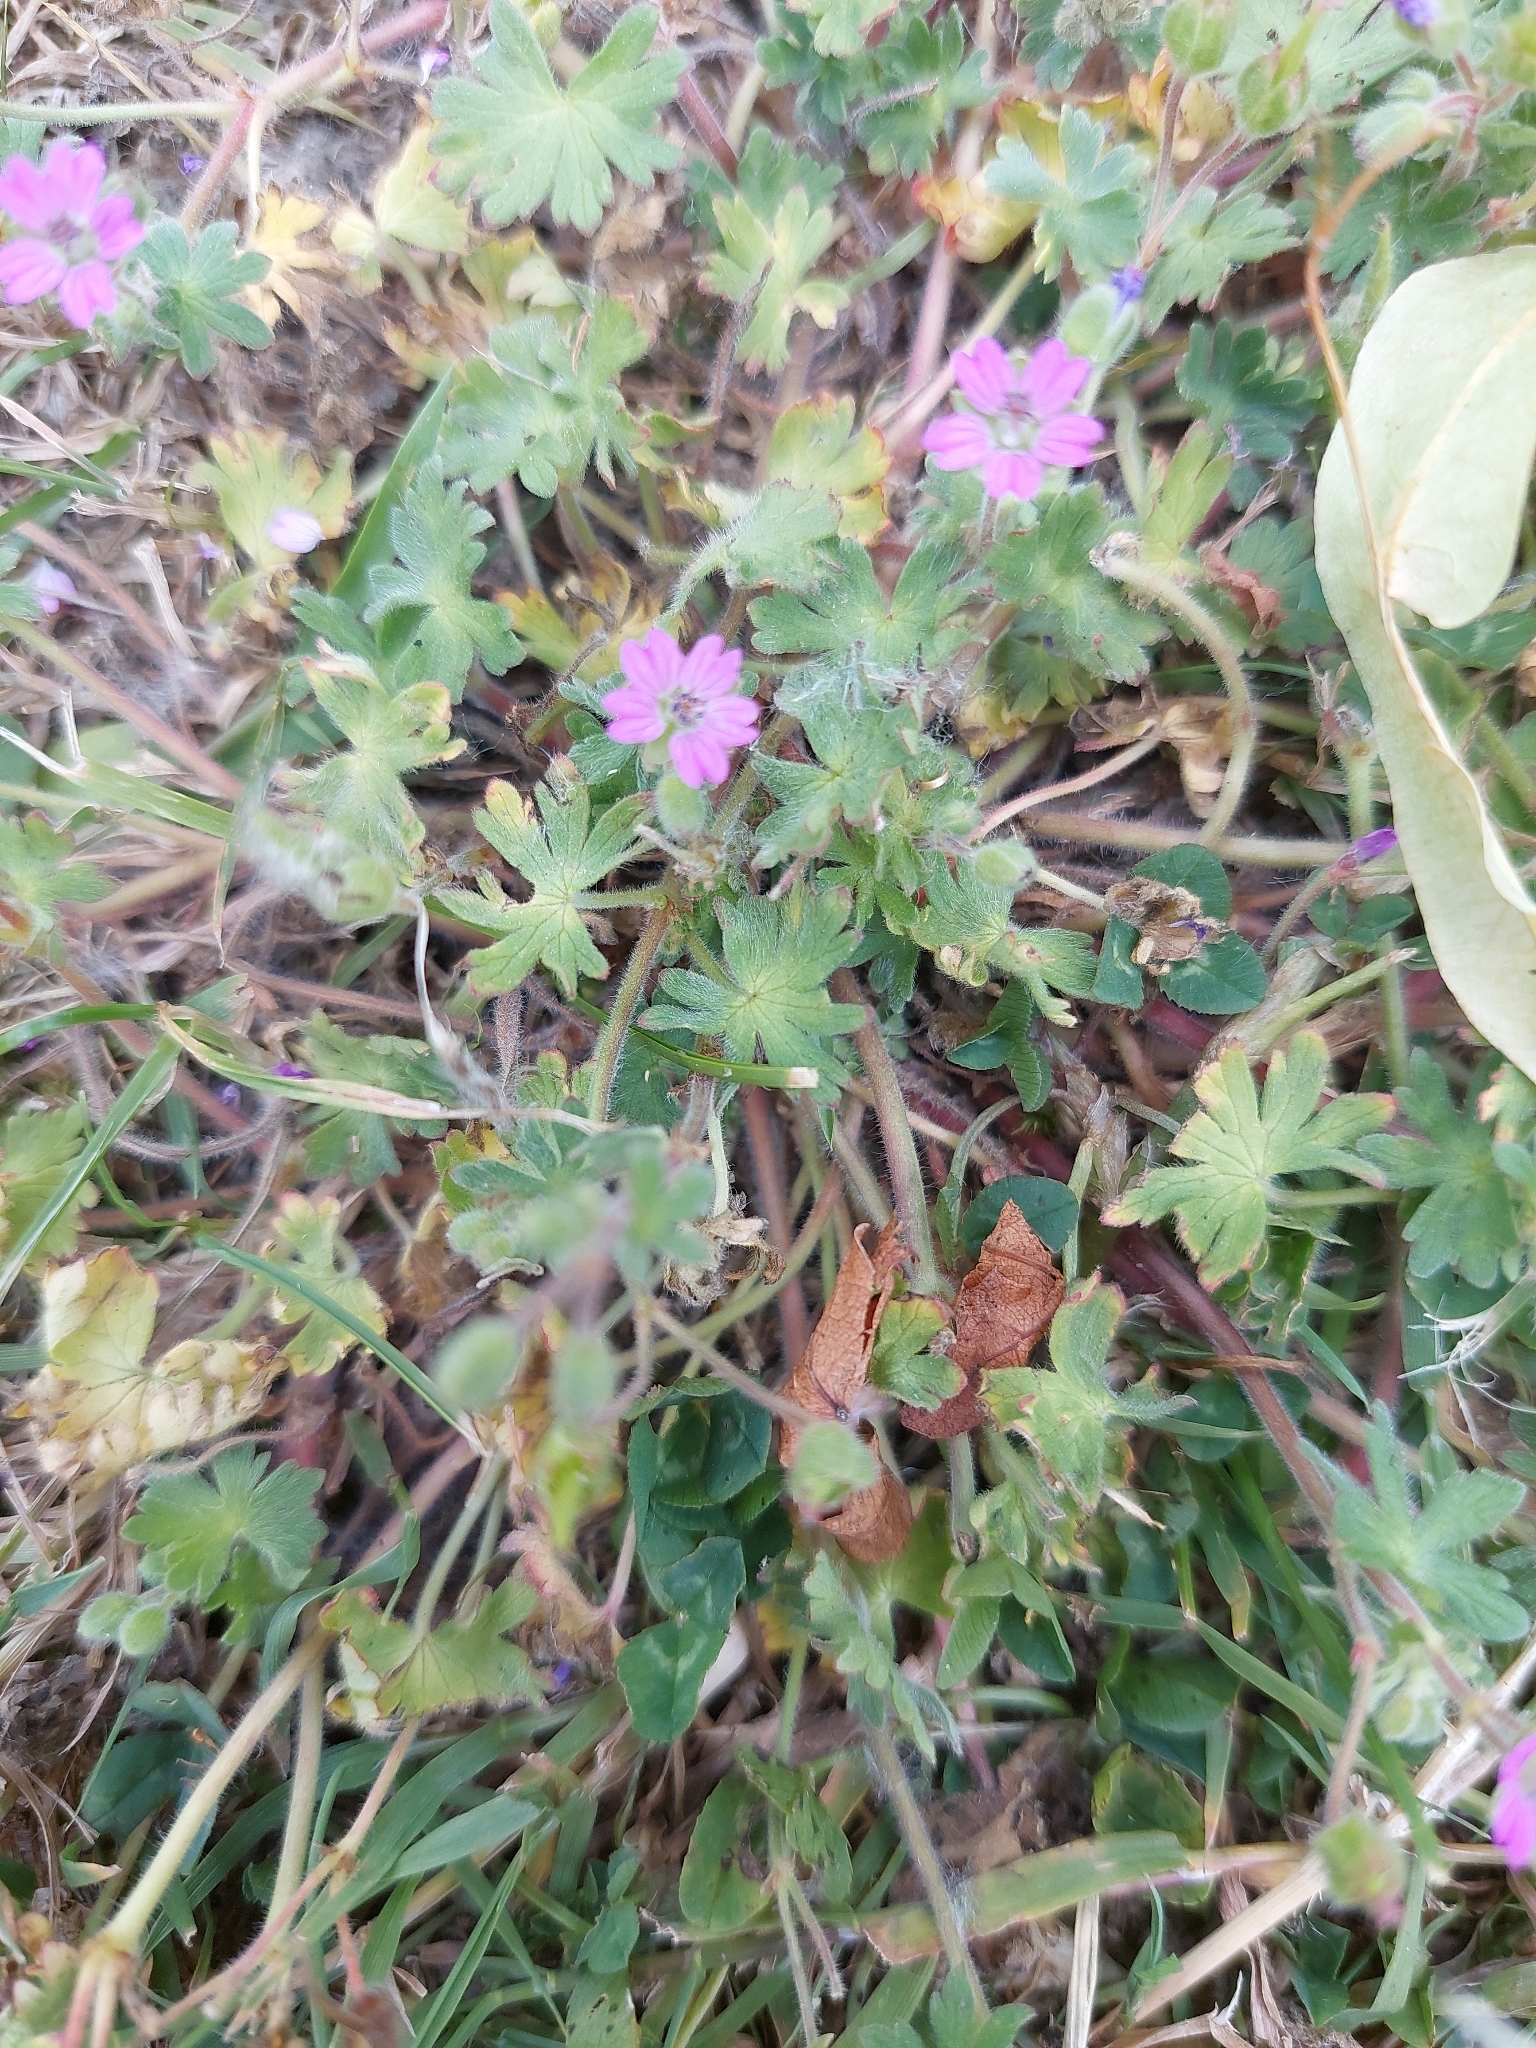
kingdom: Plantae
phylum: Tracheophyta
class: Magnoliopsida
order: Geraniales
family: Geraniaceae
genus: Geranium
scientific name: Geranium molle
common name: Dove's-foot crane's-bill
